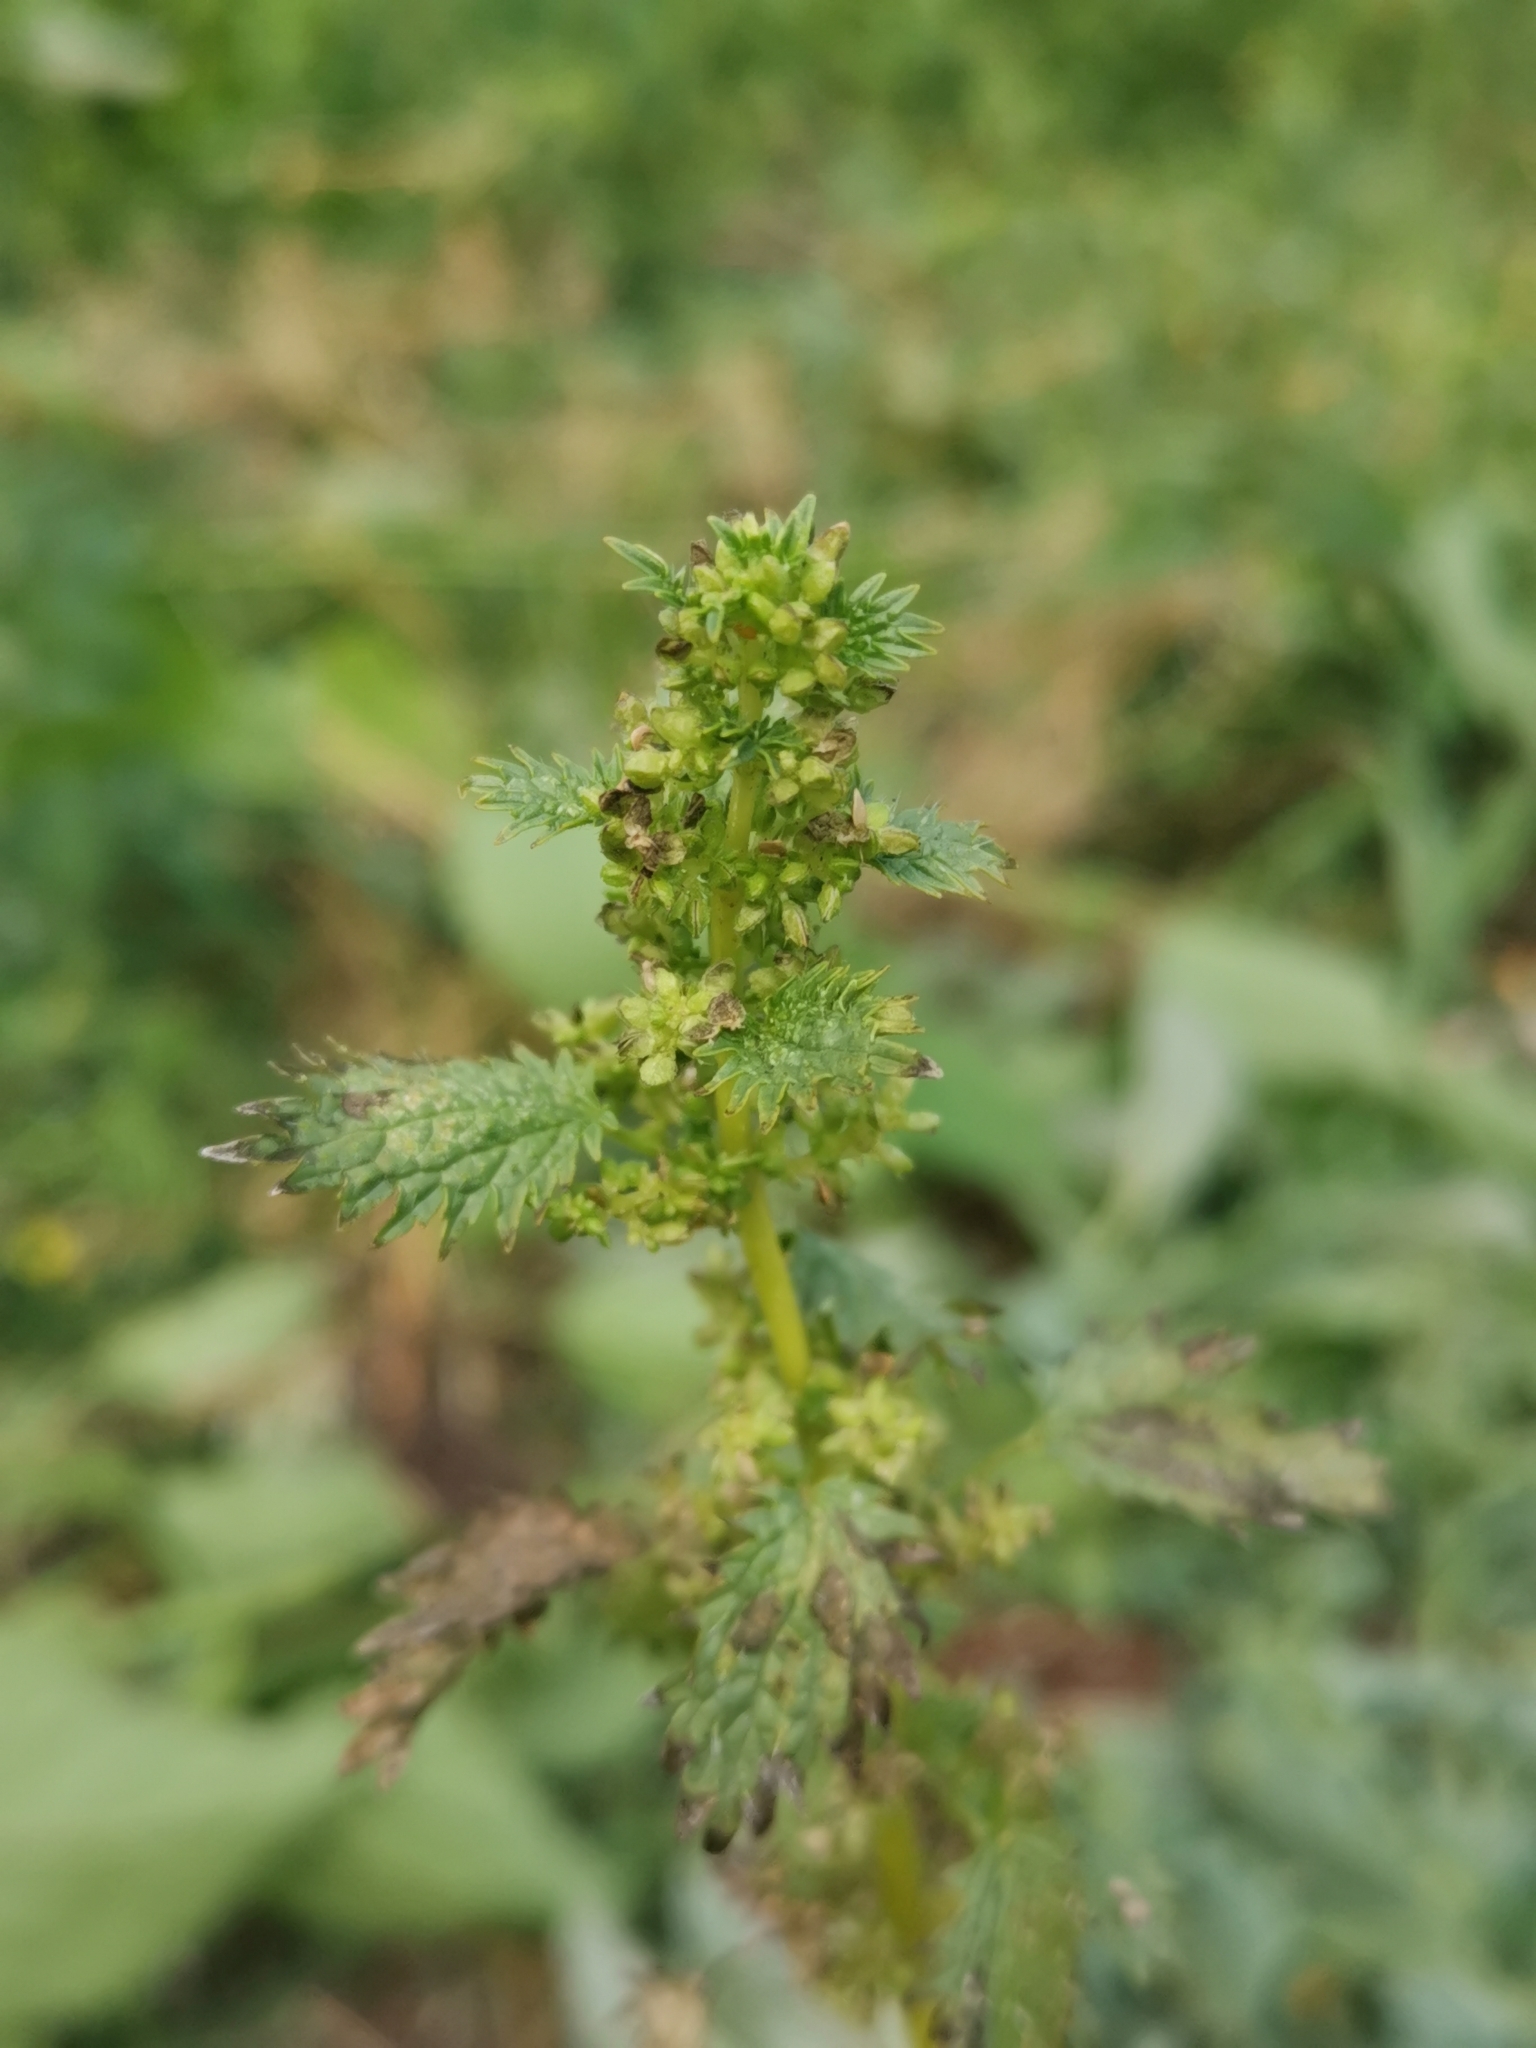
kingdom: Plantae
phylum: Tracheophyta
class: Magnoliopsida
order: Rosales
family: Urticaceae
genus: Urtica
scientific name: Urtica urens
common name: Dwarf nettle
